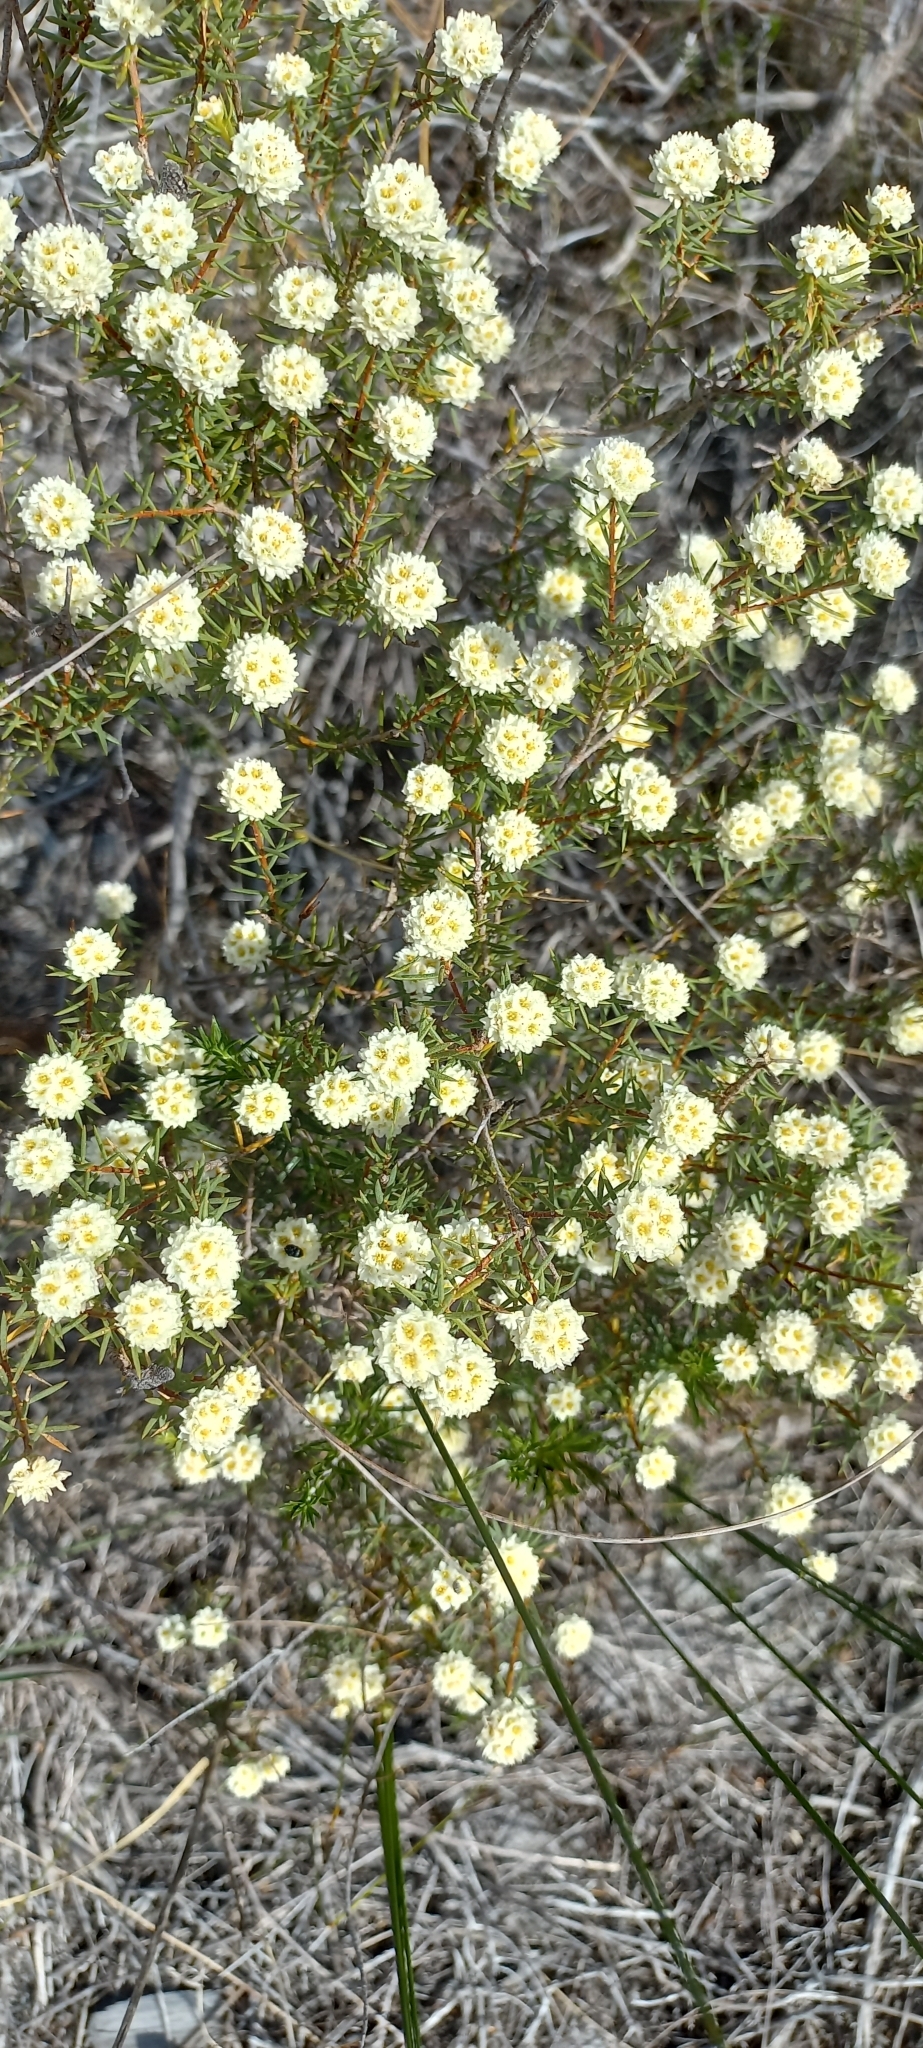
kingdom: Plantae
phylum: Tracheophyta
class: Magnoliopsida
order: Malvales
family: Thymelaeaceae
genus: Lachnaea
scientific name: Lachnaea densiflora
